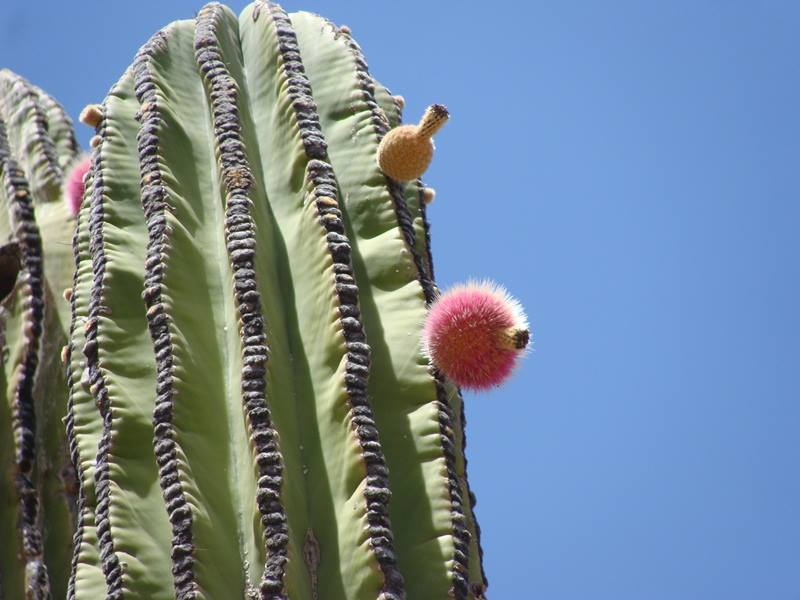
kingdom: Plantae
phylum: Tracheophyta
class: Magnoliopsida
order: Caryophyllales
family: Cactaceae
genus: Pachycereus
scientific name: Pachycereus pringlei
